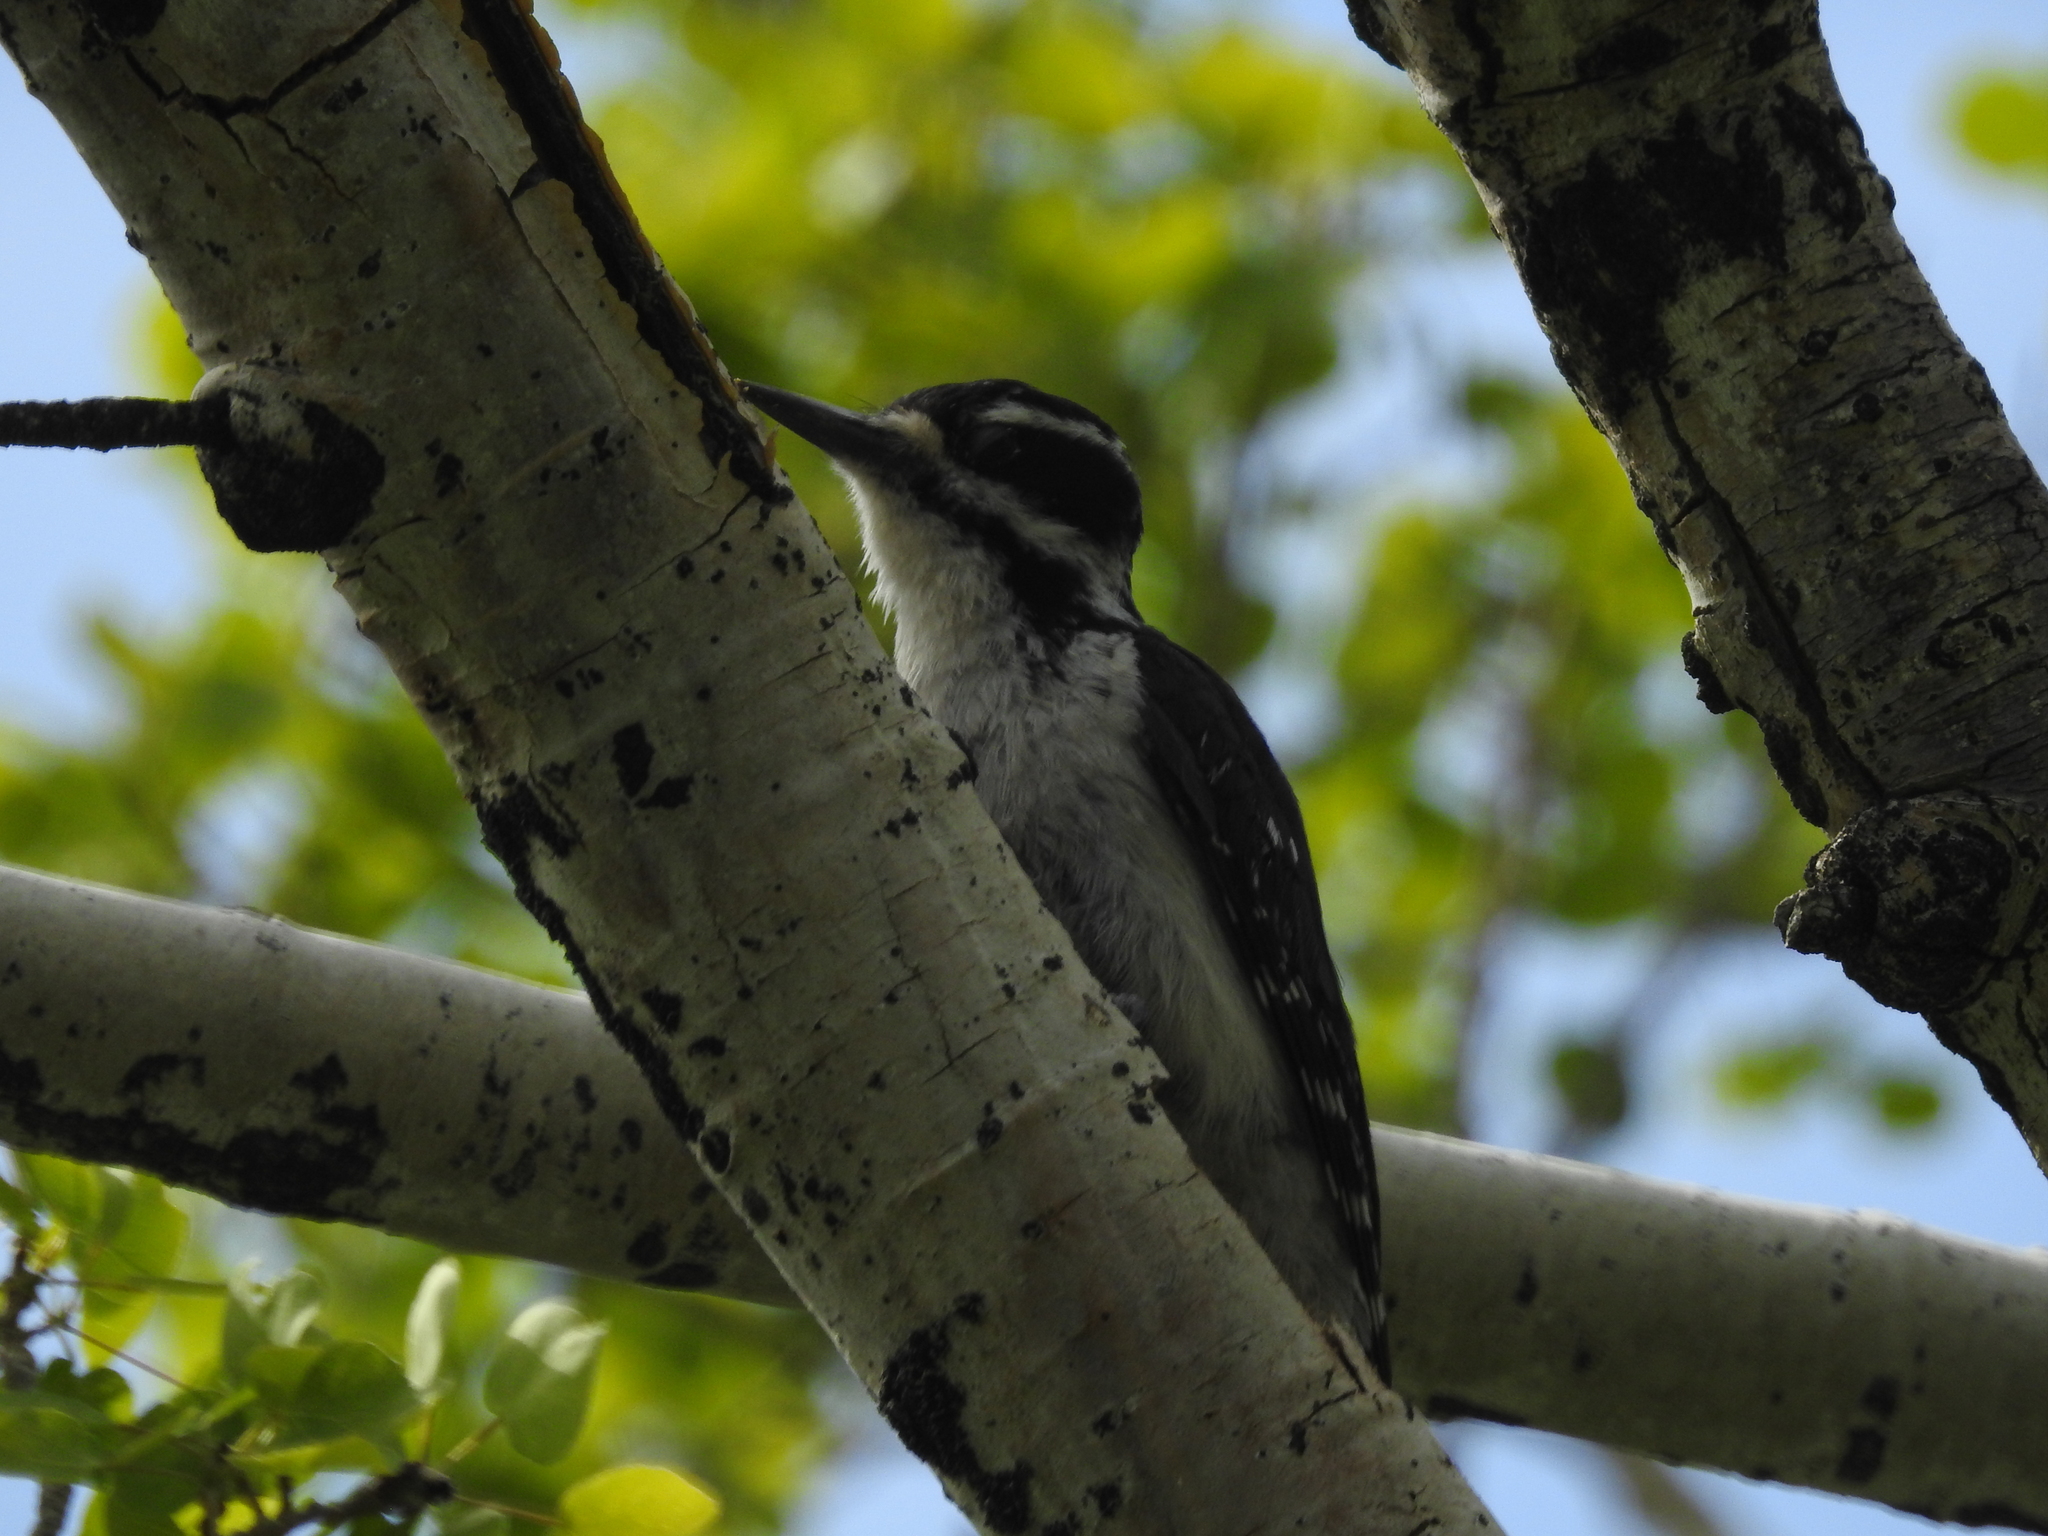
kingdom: Animalia
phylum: Chordata
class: Aves
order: Piciformes
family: Picidae
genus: Leuconotopicus
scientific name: Leuconotopicus villosus
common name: Hairy woodpecker
